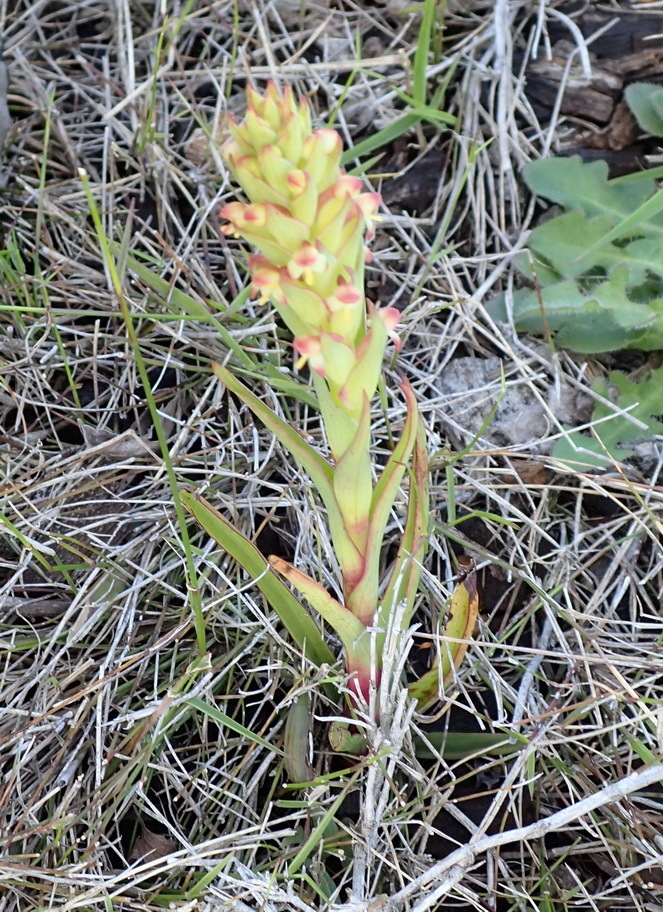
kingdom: Plantae
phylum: Tracheophyta
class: Liliopsida
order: Asparagales
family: Orchidaceae
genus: Disa
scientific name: Disa bracteata
